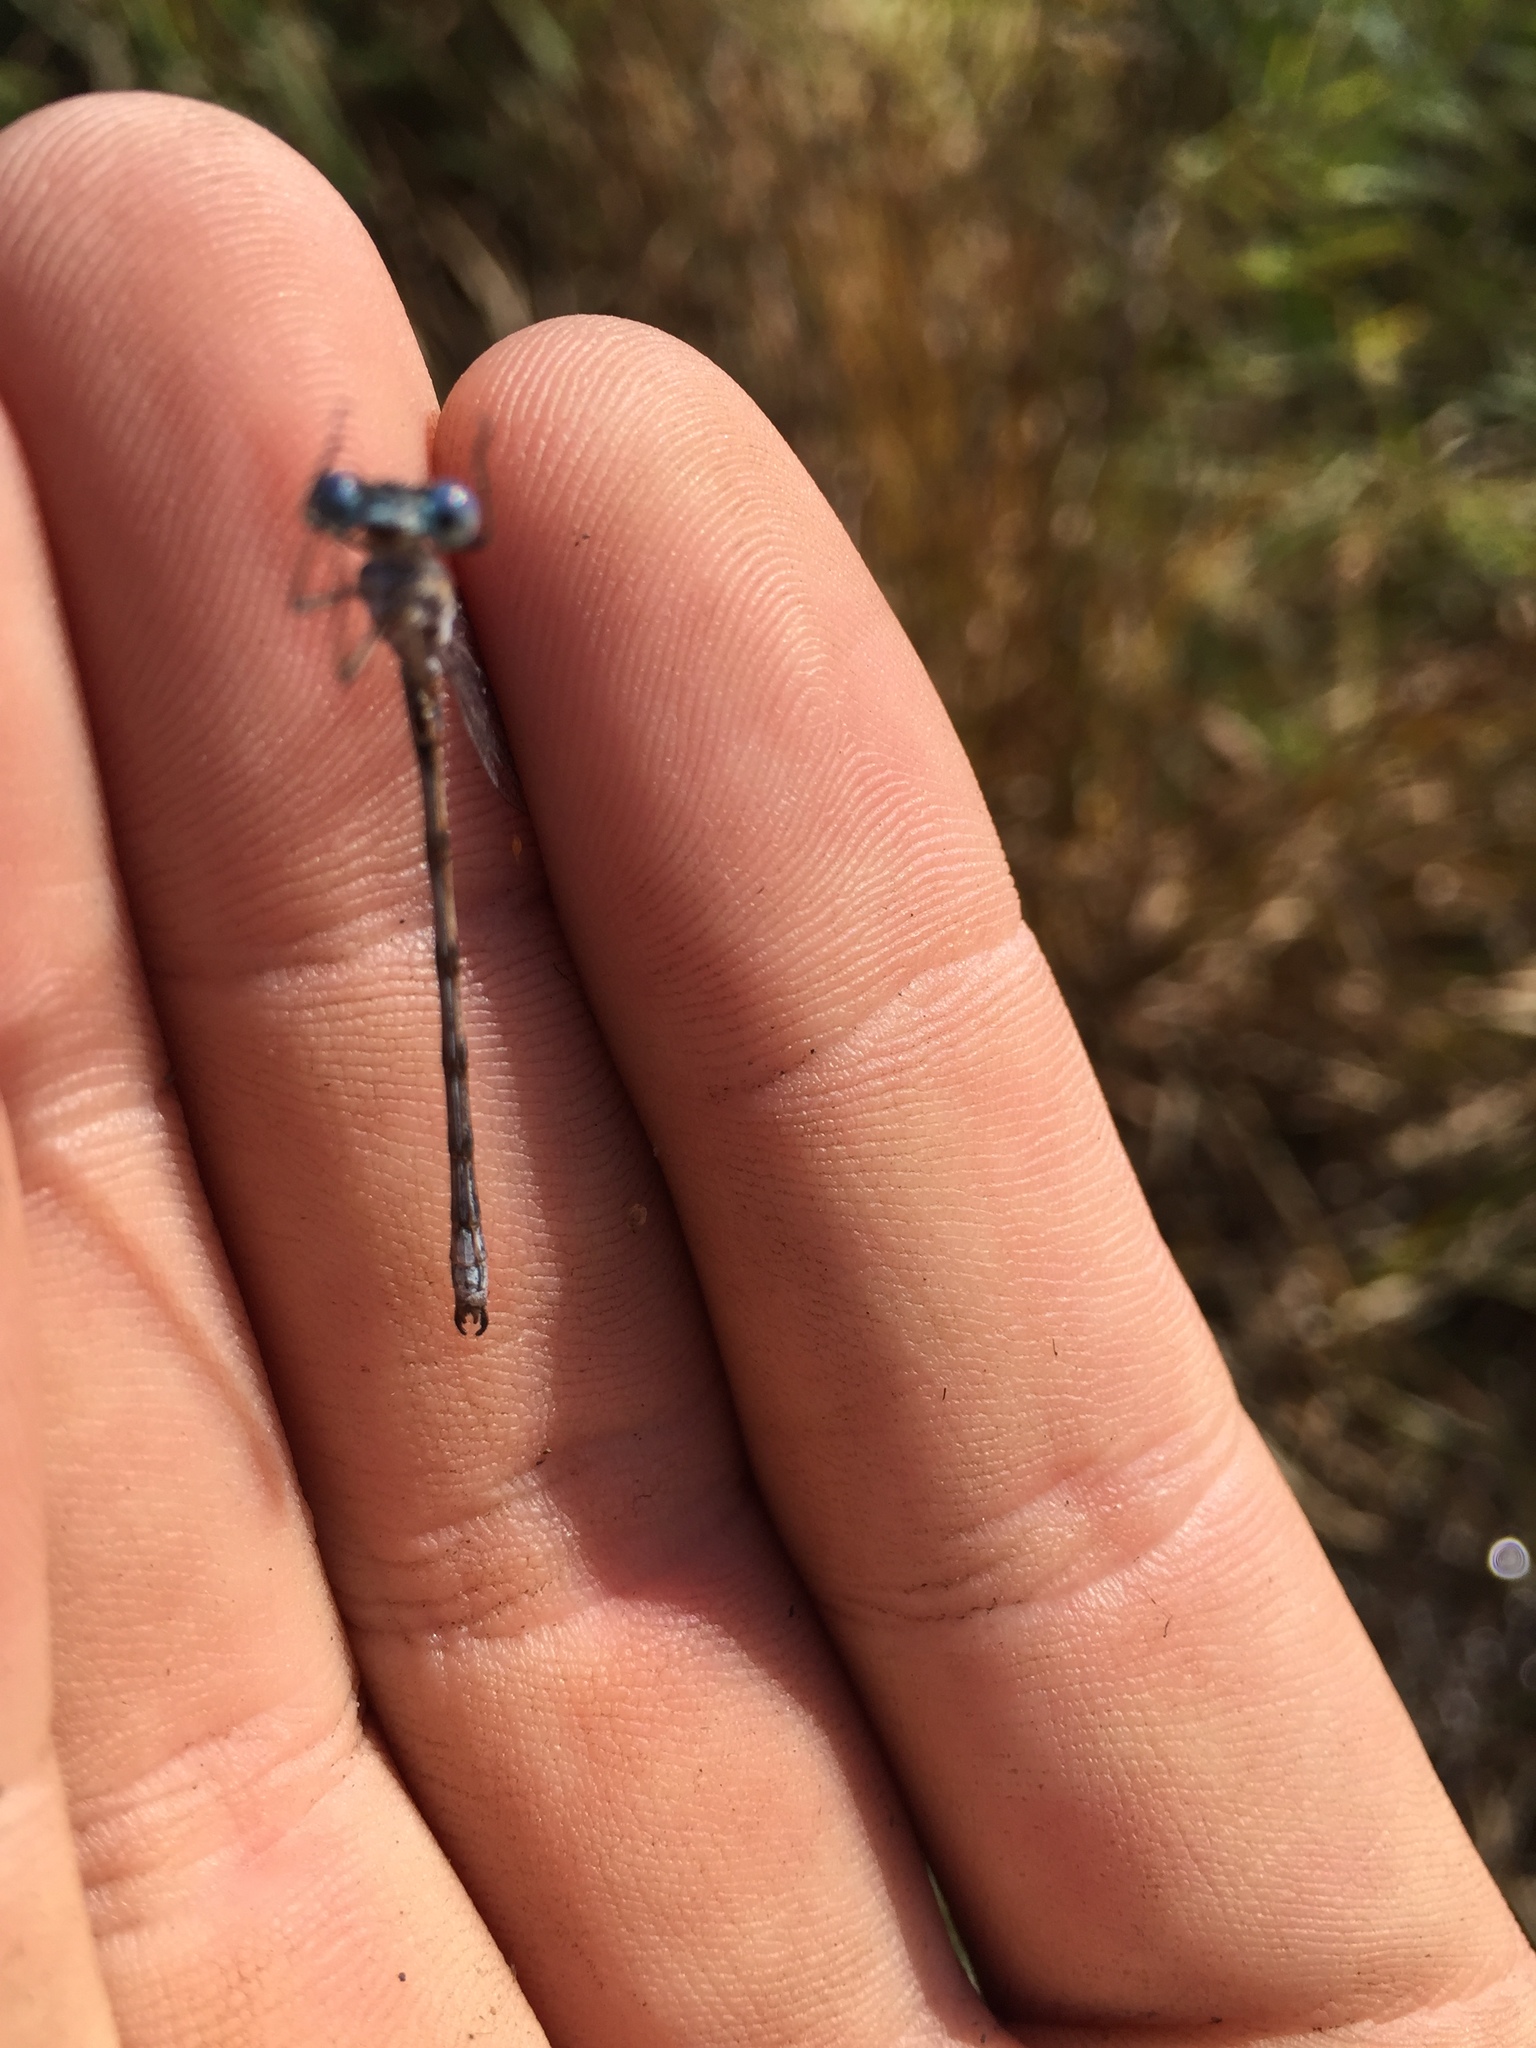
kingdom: Animalia
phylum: Arthropoda
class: Insecta
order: Odonata
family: Lestidae
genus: Lestes
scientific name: Lestes congener
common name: Spotted spreadwing
